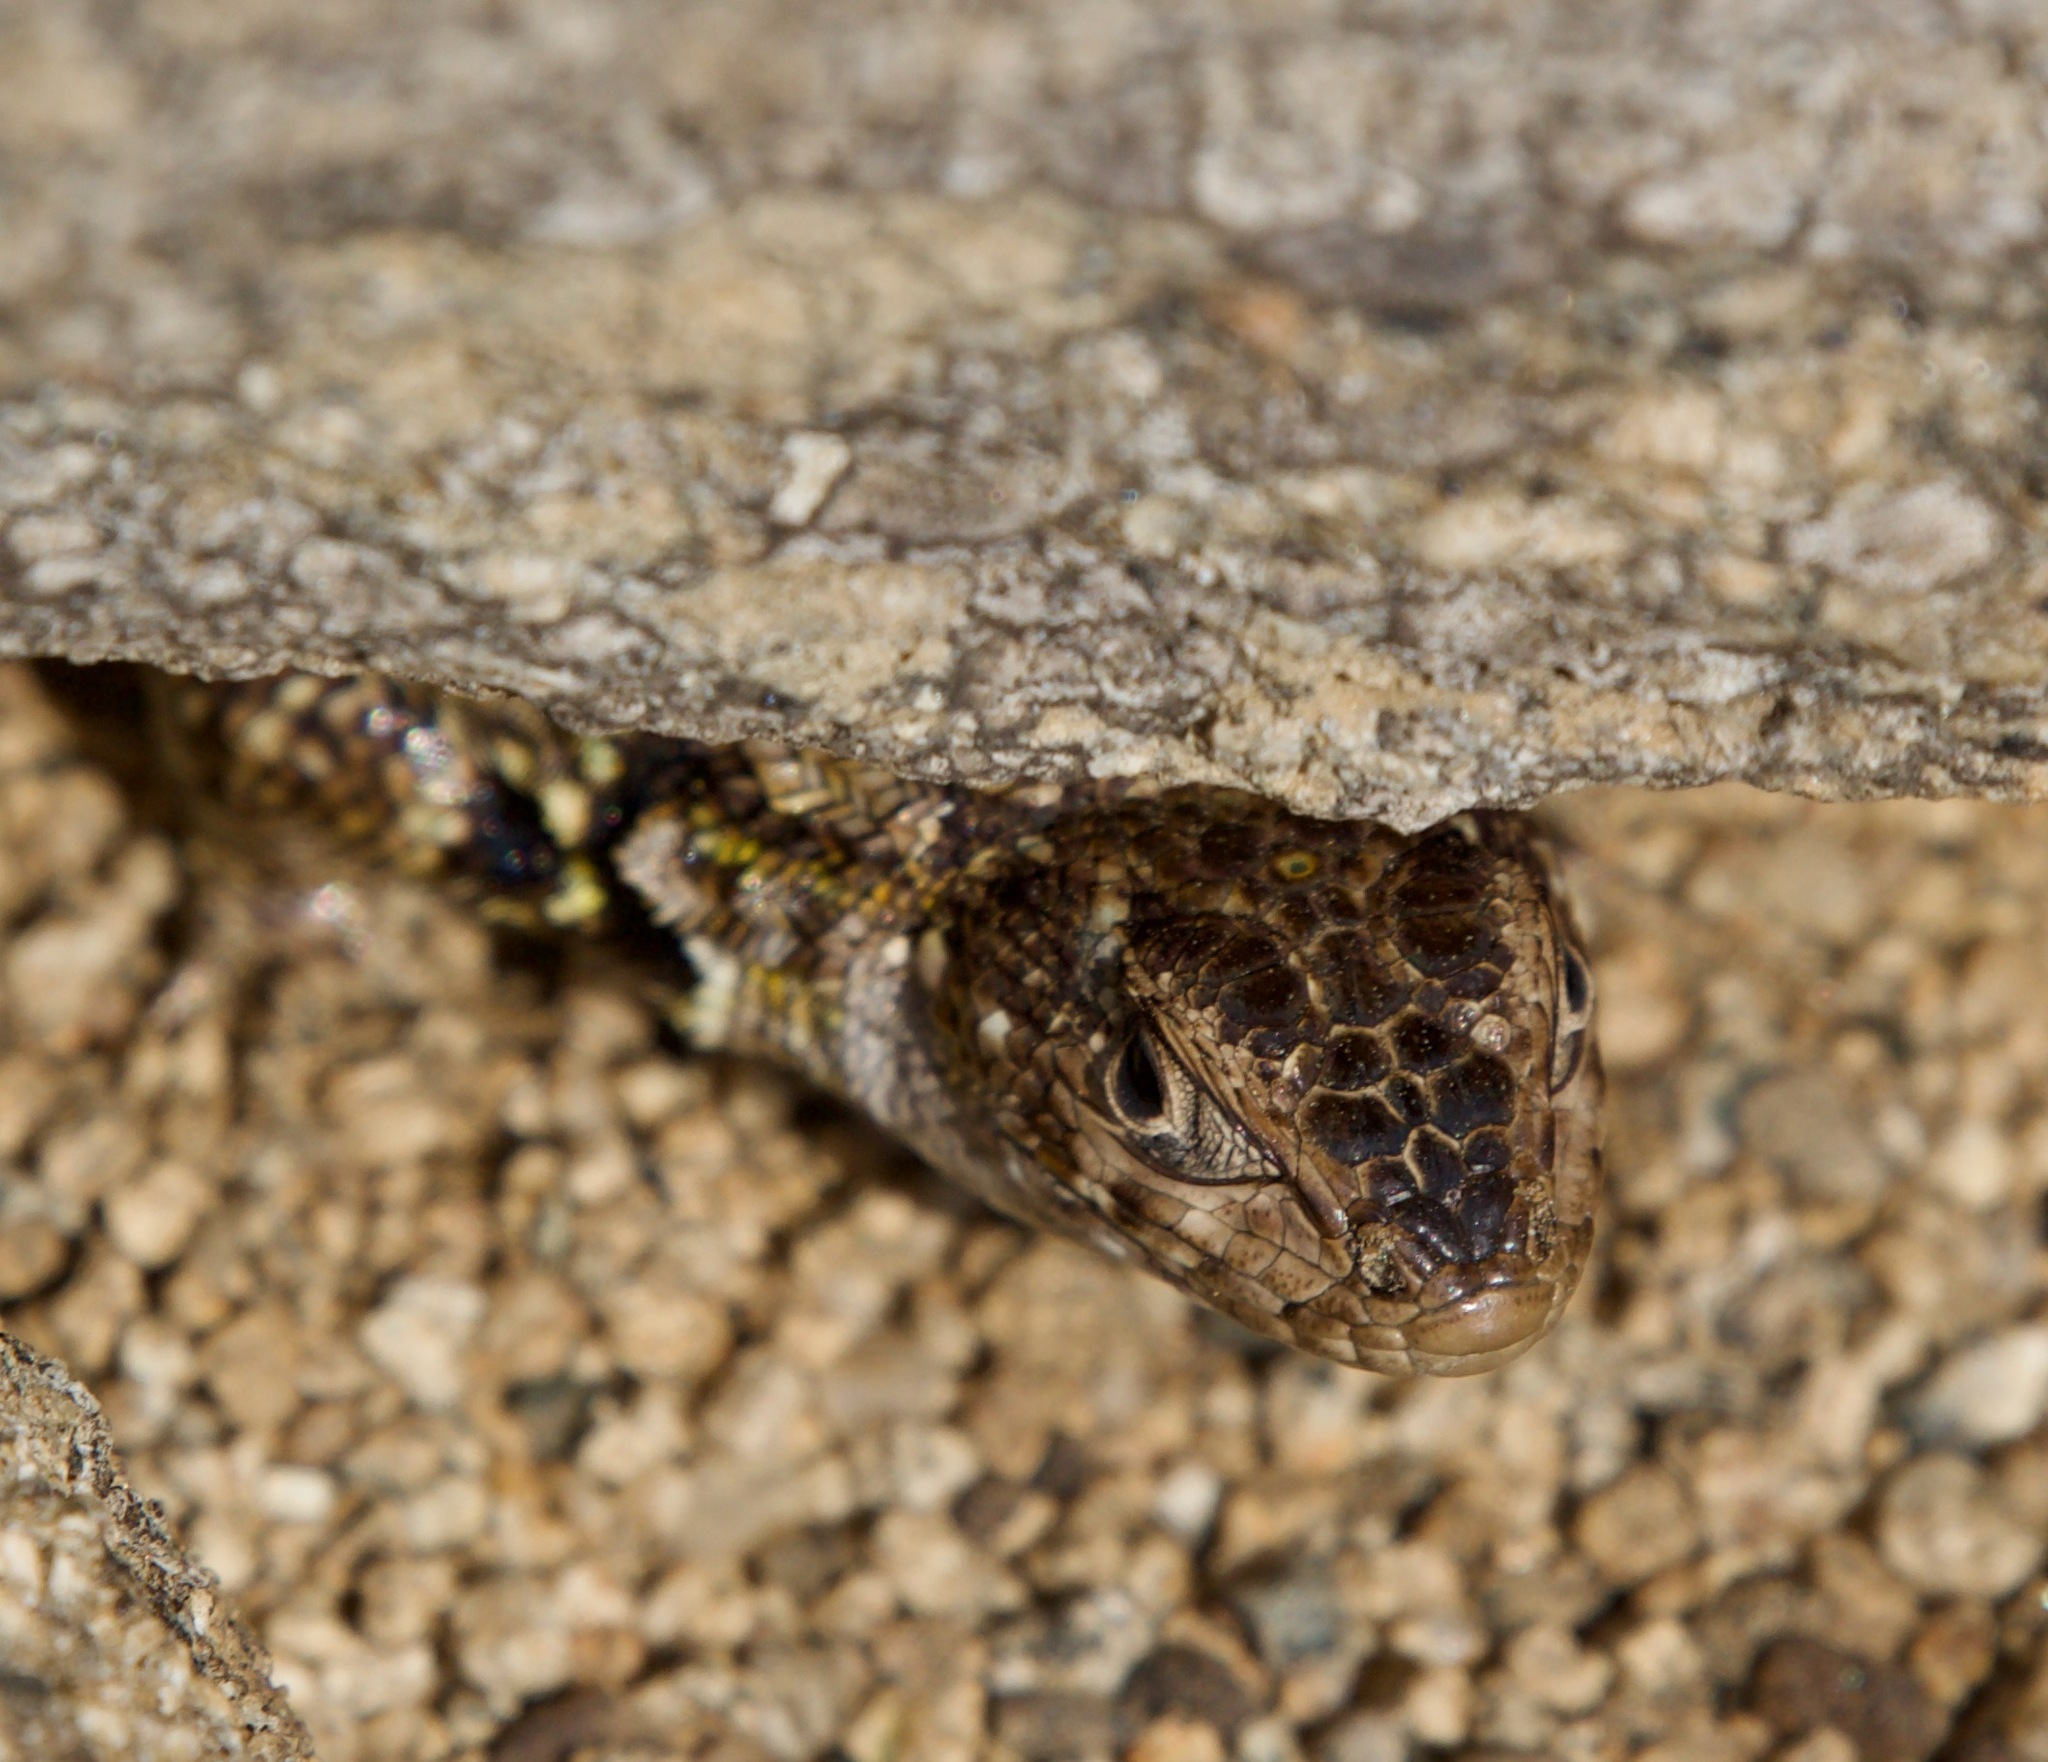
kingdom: Animalia
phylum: Chordata
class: Squamata
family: Liolaemidae
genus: Liolaemus
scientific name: Liolaemus zapallarensis
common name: Zapallaren tree iguana
